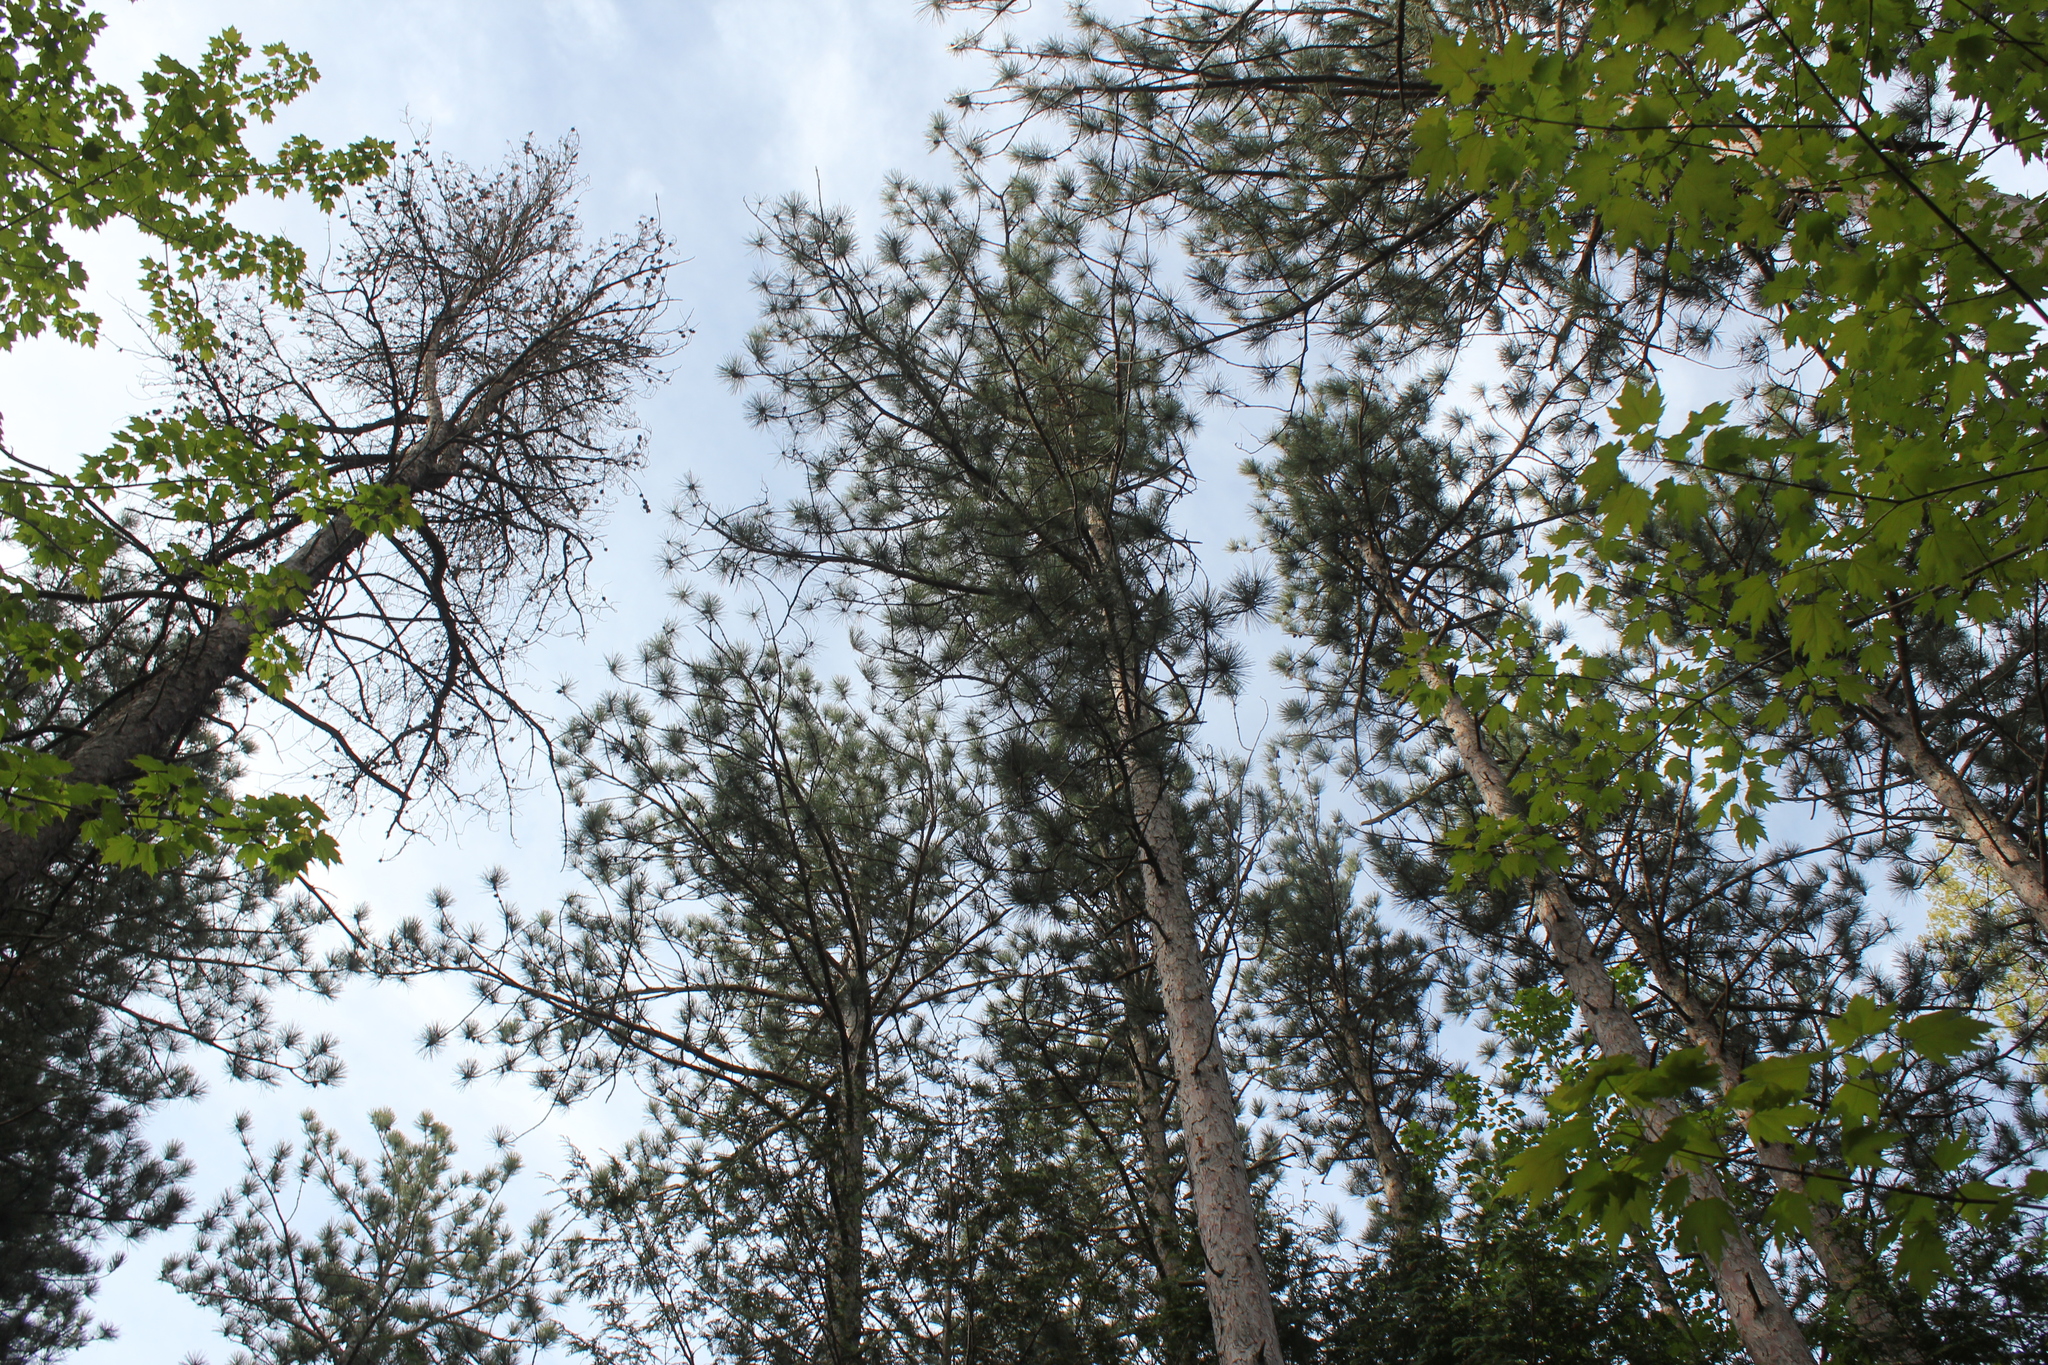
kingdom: Plantae
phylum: Tracheophyta
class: Pinopsida
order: Pinales
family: Pinaceae
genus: Pinus
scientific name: Pinus resinosa
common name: Norway pine
